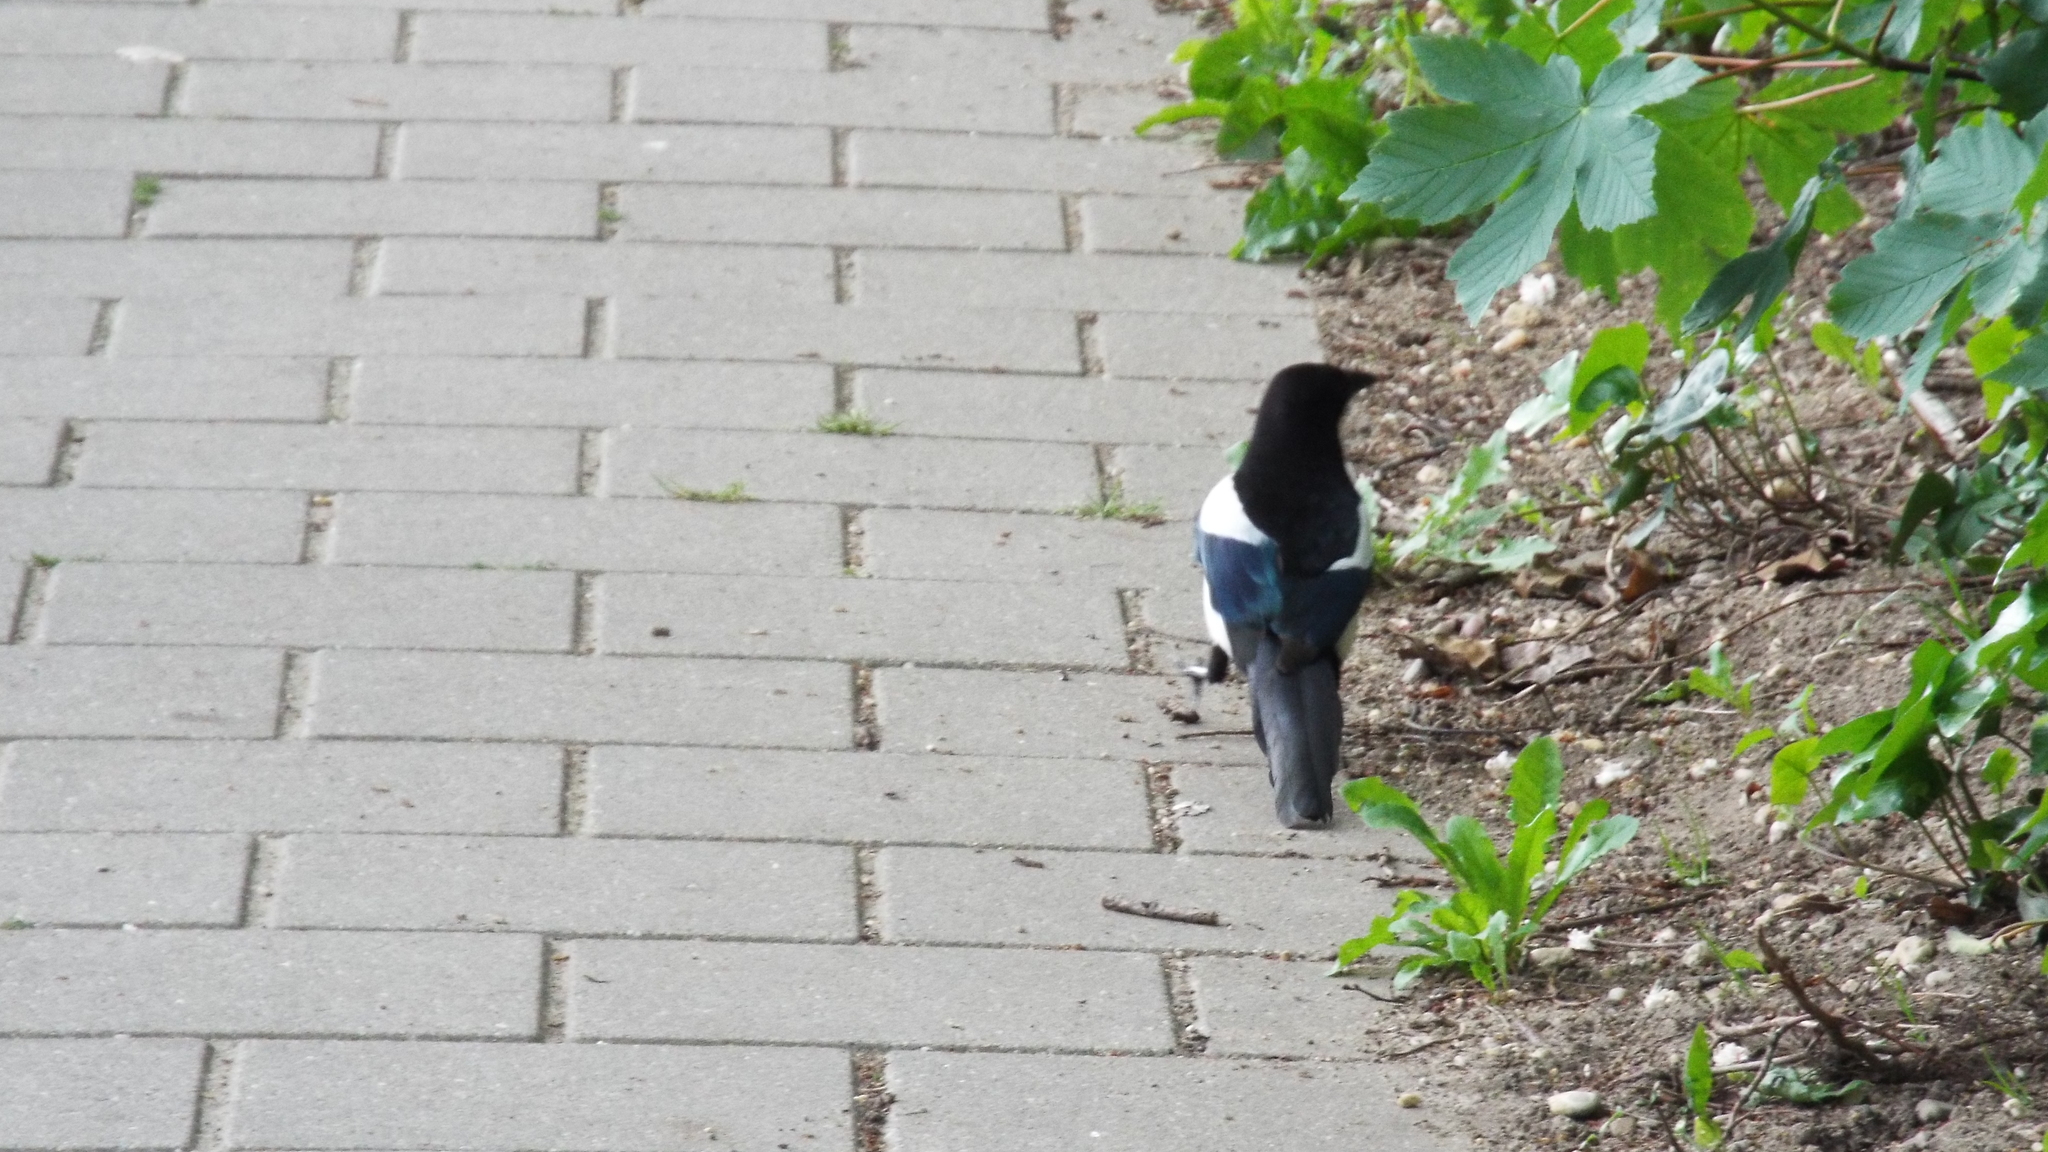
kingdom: Animalia
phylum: Chordata
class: Aves
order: Passeriformes
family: Corvidae
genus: Pica
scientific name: Pica pica
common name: Eurasian magpie
